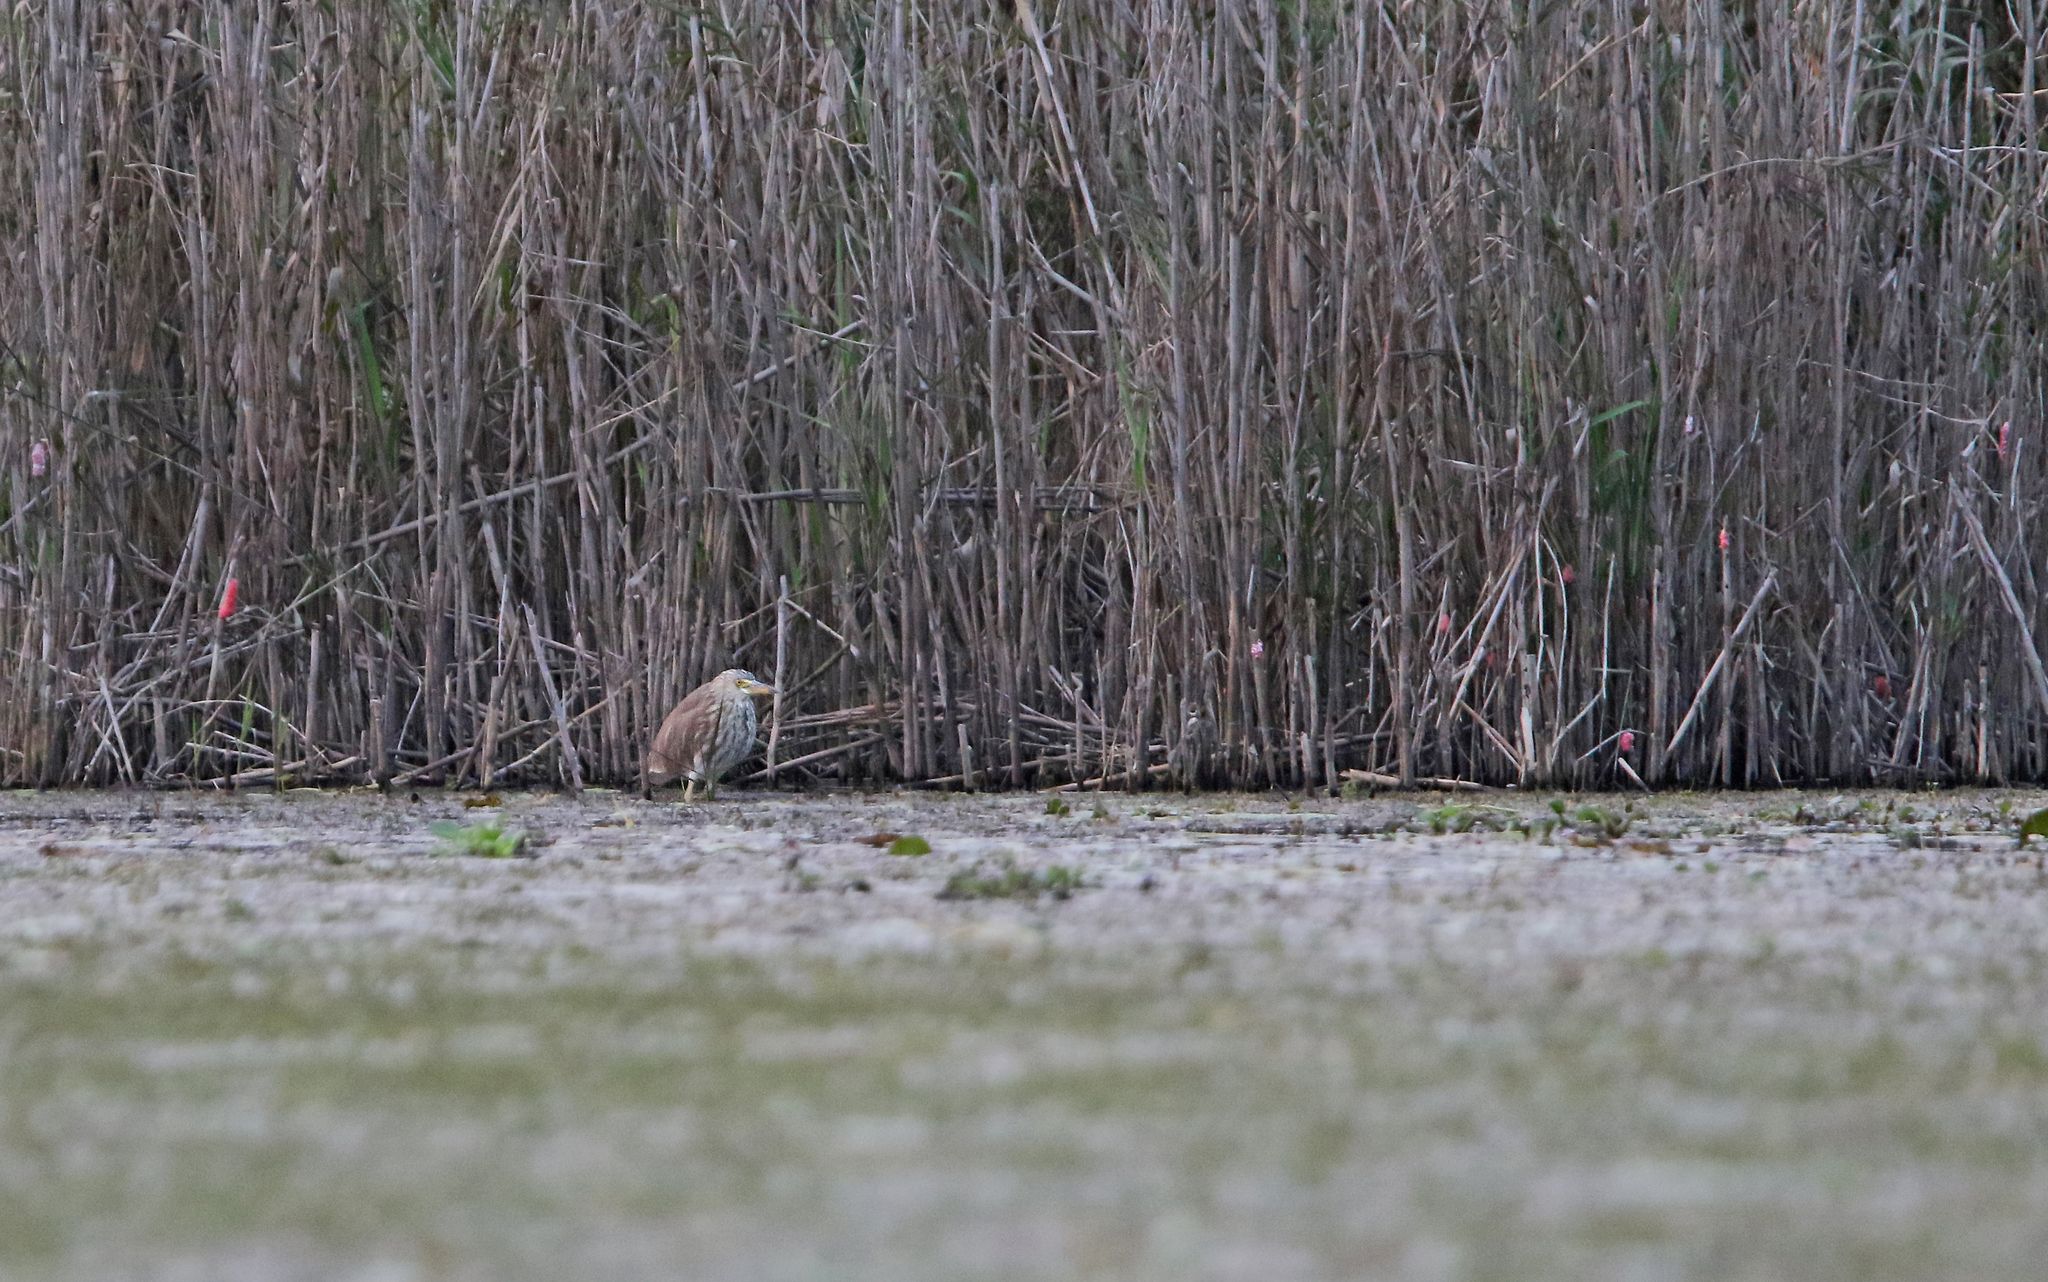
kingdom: Animalia
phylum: Chordata
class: Aves
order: Pelecaniformes
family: Ardeidae
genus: Ardeola
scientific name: Ardeola bacchus
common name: Chinese pond heron
